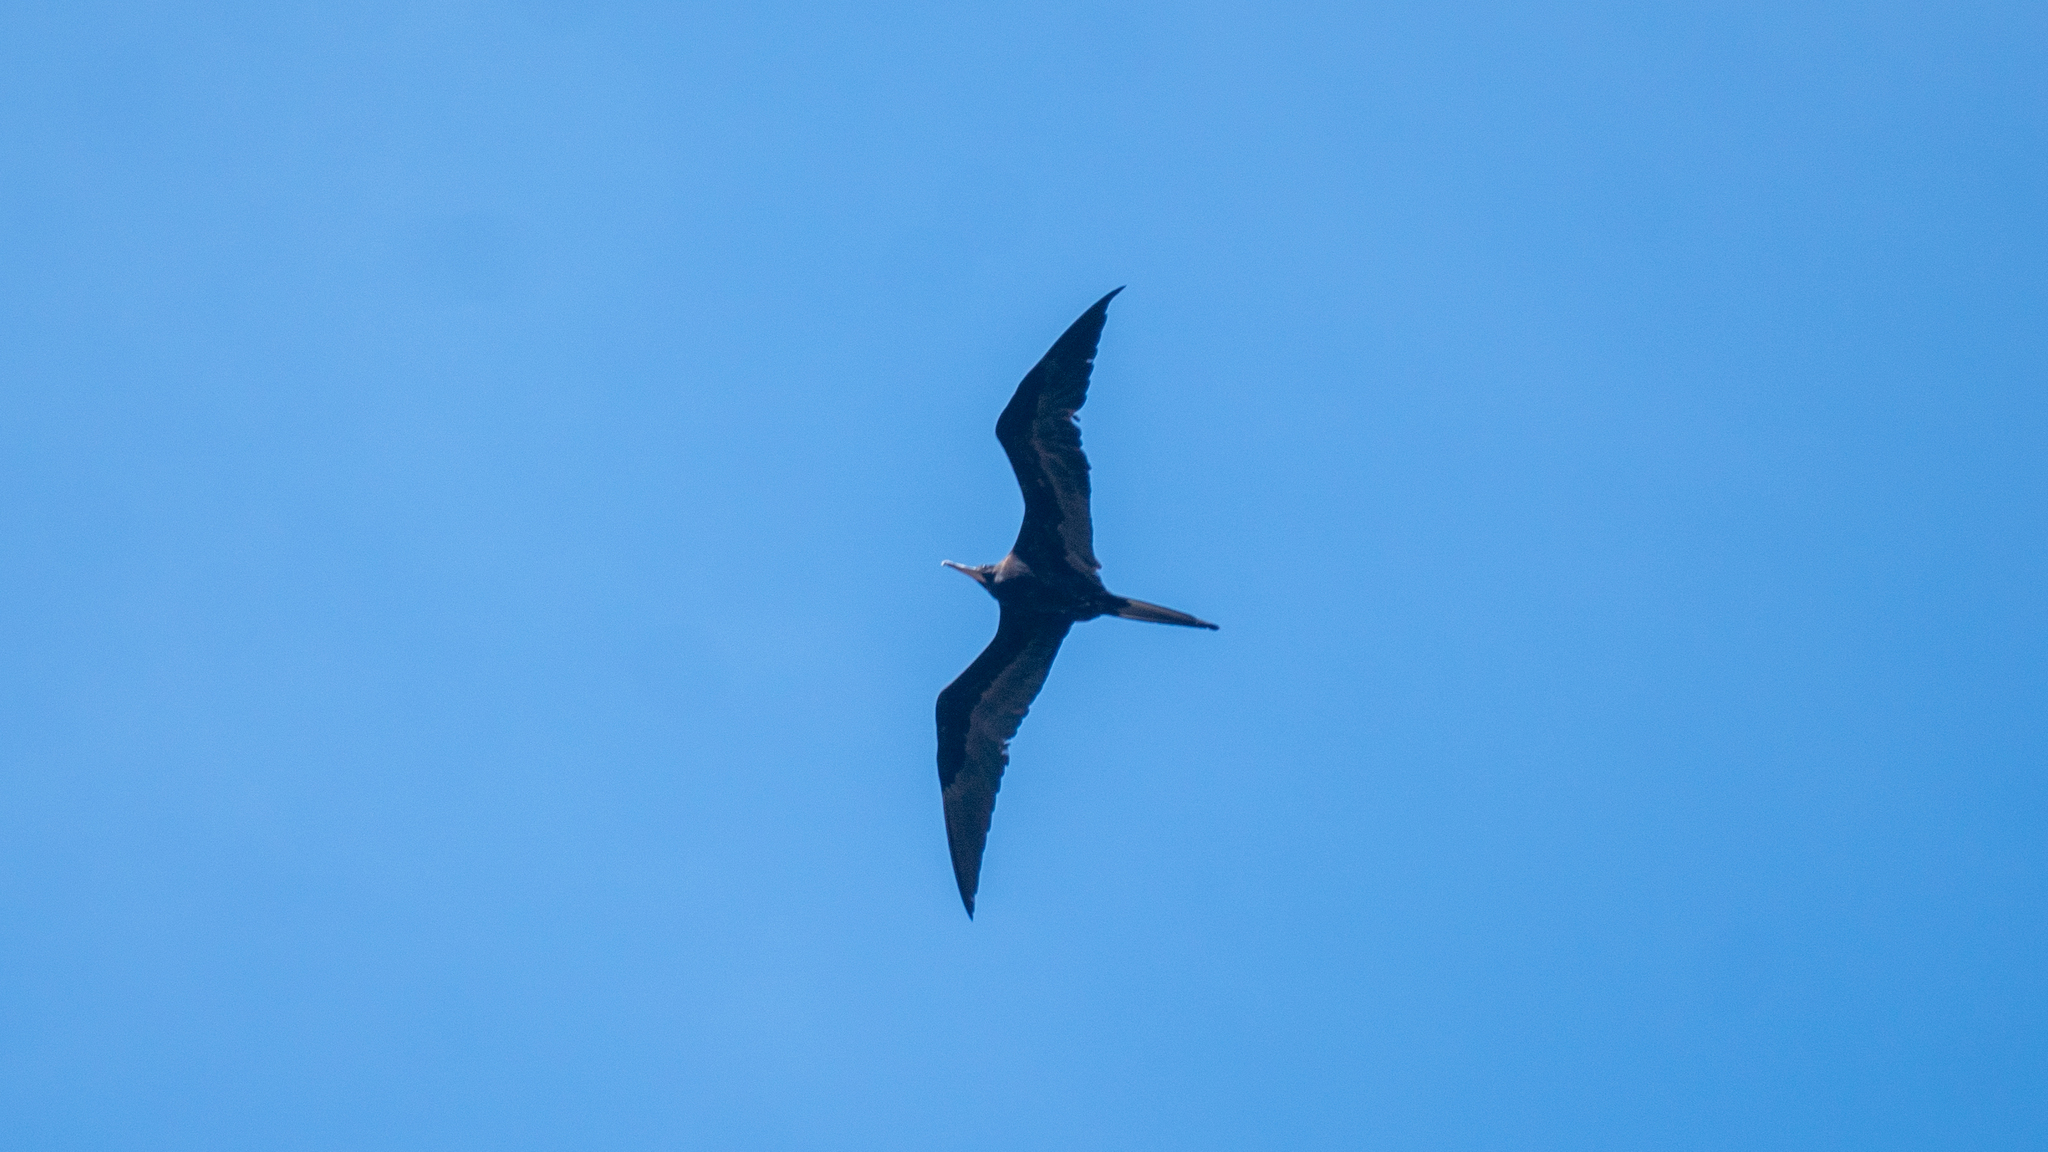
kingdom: Animalia
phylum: Chordata
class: Aves
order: Suliformes
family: Fregatidae
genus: Fregata
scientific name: Fregata magnificens
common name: Magnificent frigatebird
